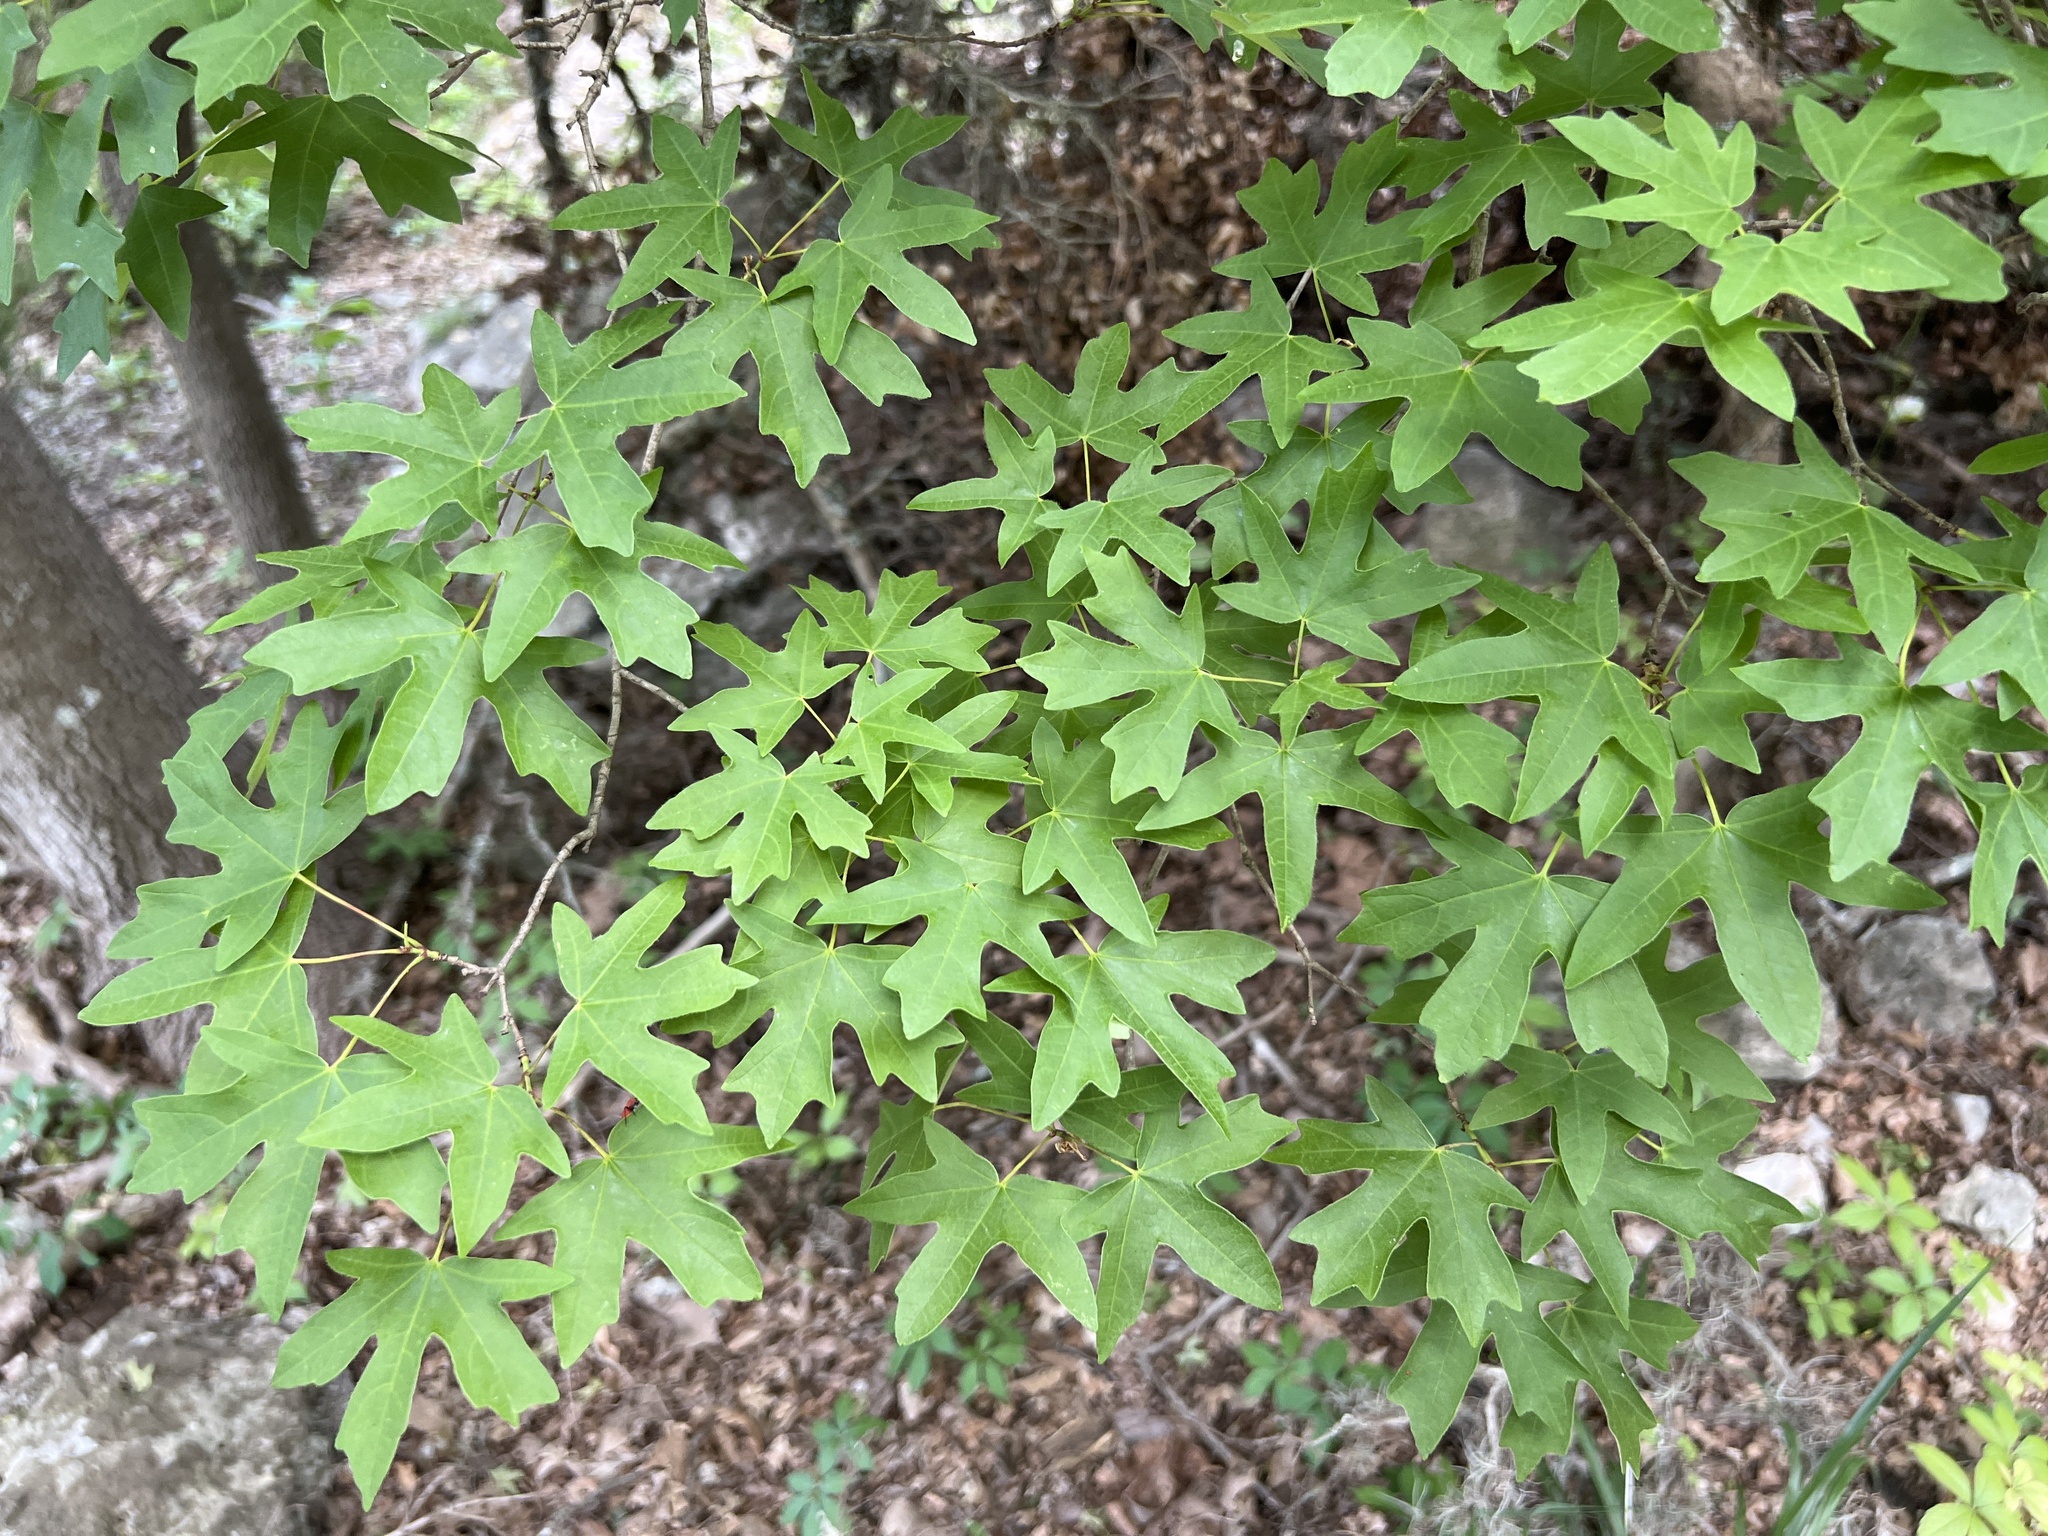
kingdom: Plantae
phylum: Tracheophyta
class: Magnoliopsida
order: Sapindales
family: Sapindaceae
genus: Acer
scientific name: Acer grandidentatum
